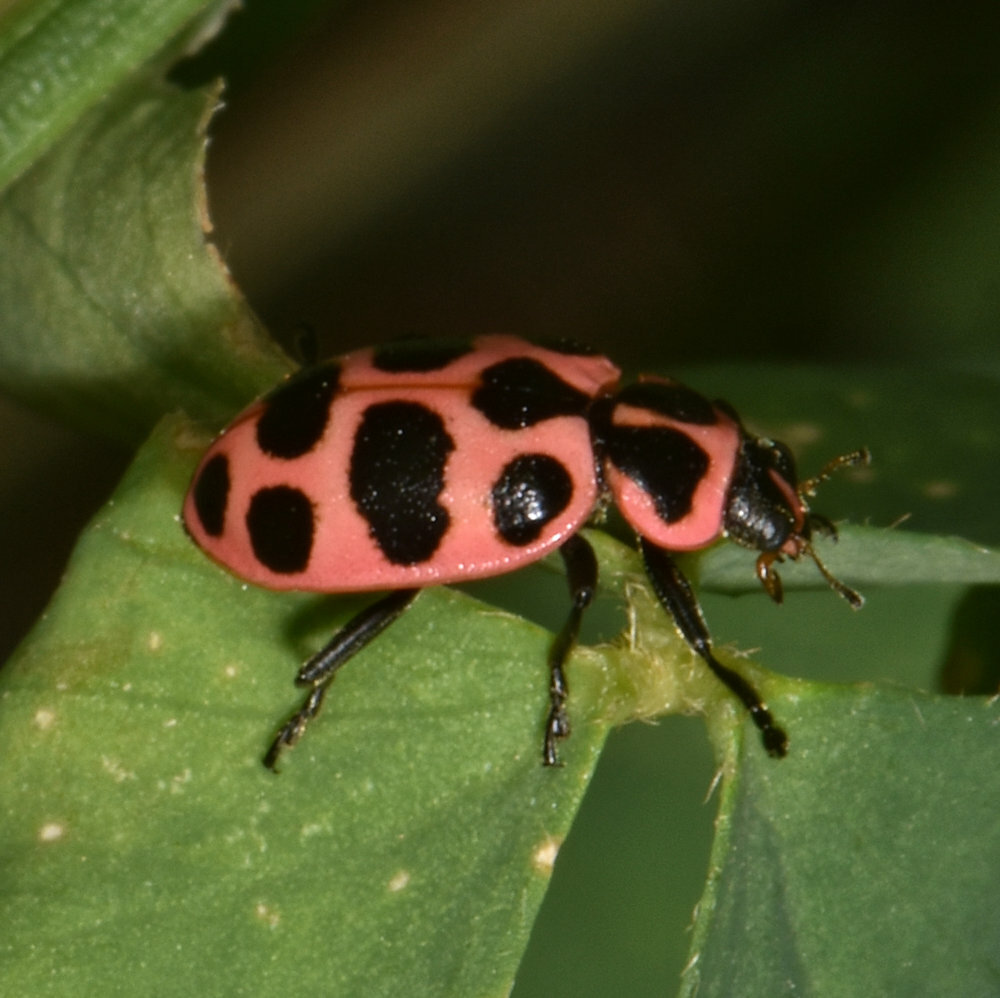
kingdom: Animalia
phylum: Arthropoda
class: Insecta
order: Coleoptera
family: Coccinellidae
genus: Coleomegilla
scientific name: Coleomegilla maculata
